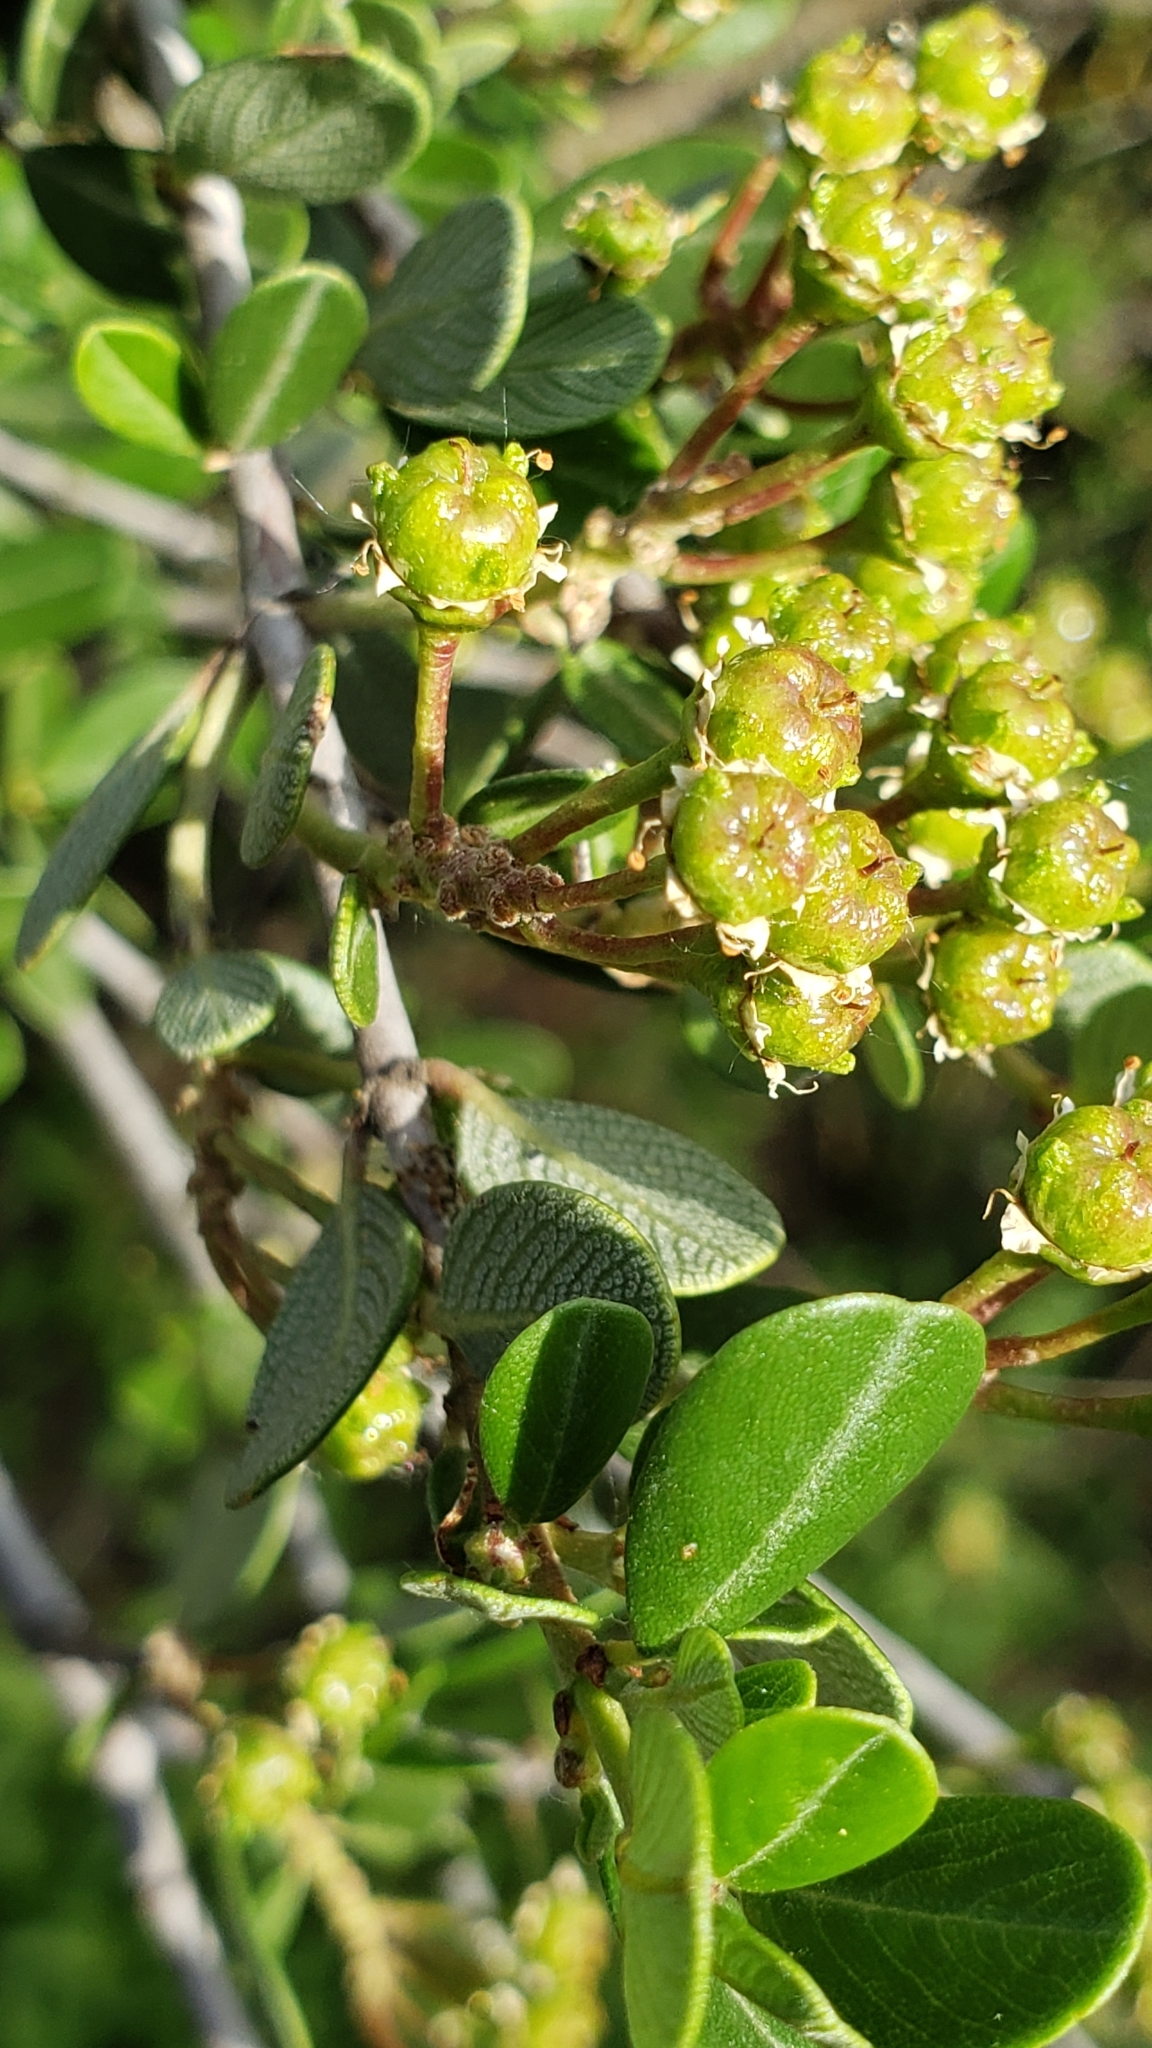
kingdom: Plantae
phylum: Tracheophyta
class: Magnoliopsida
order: Rosales
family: Rhamnaceae
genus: Ceanothus
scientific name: Ceanothus cuneatus
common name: Cuneate ceanothus
